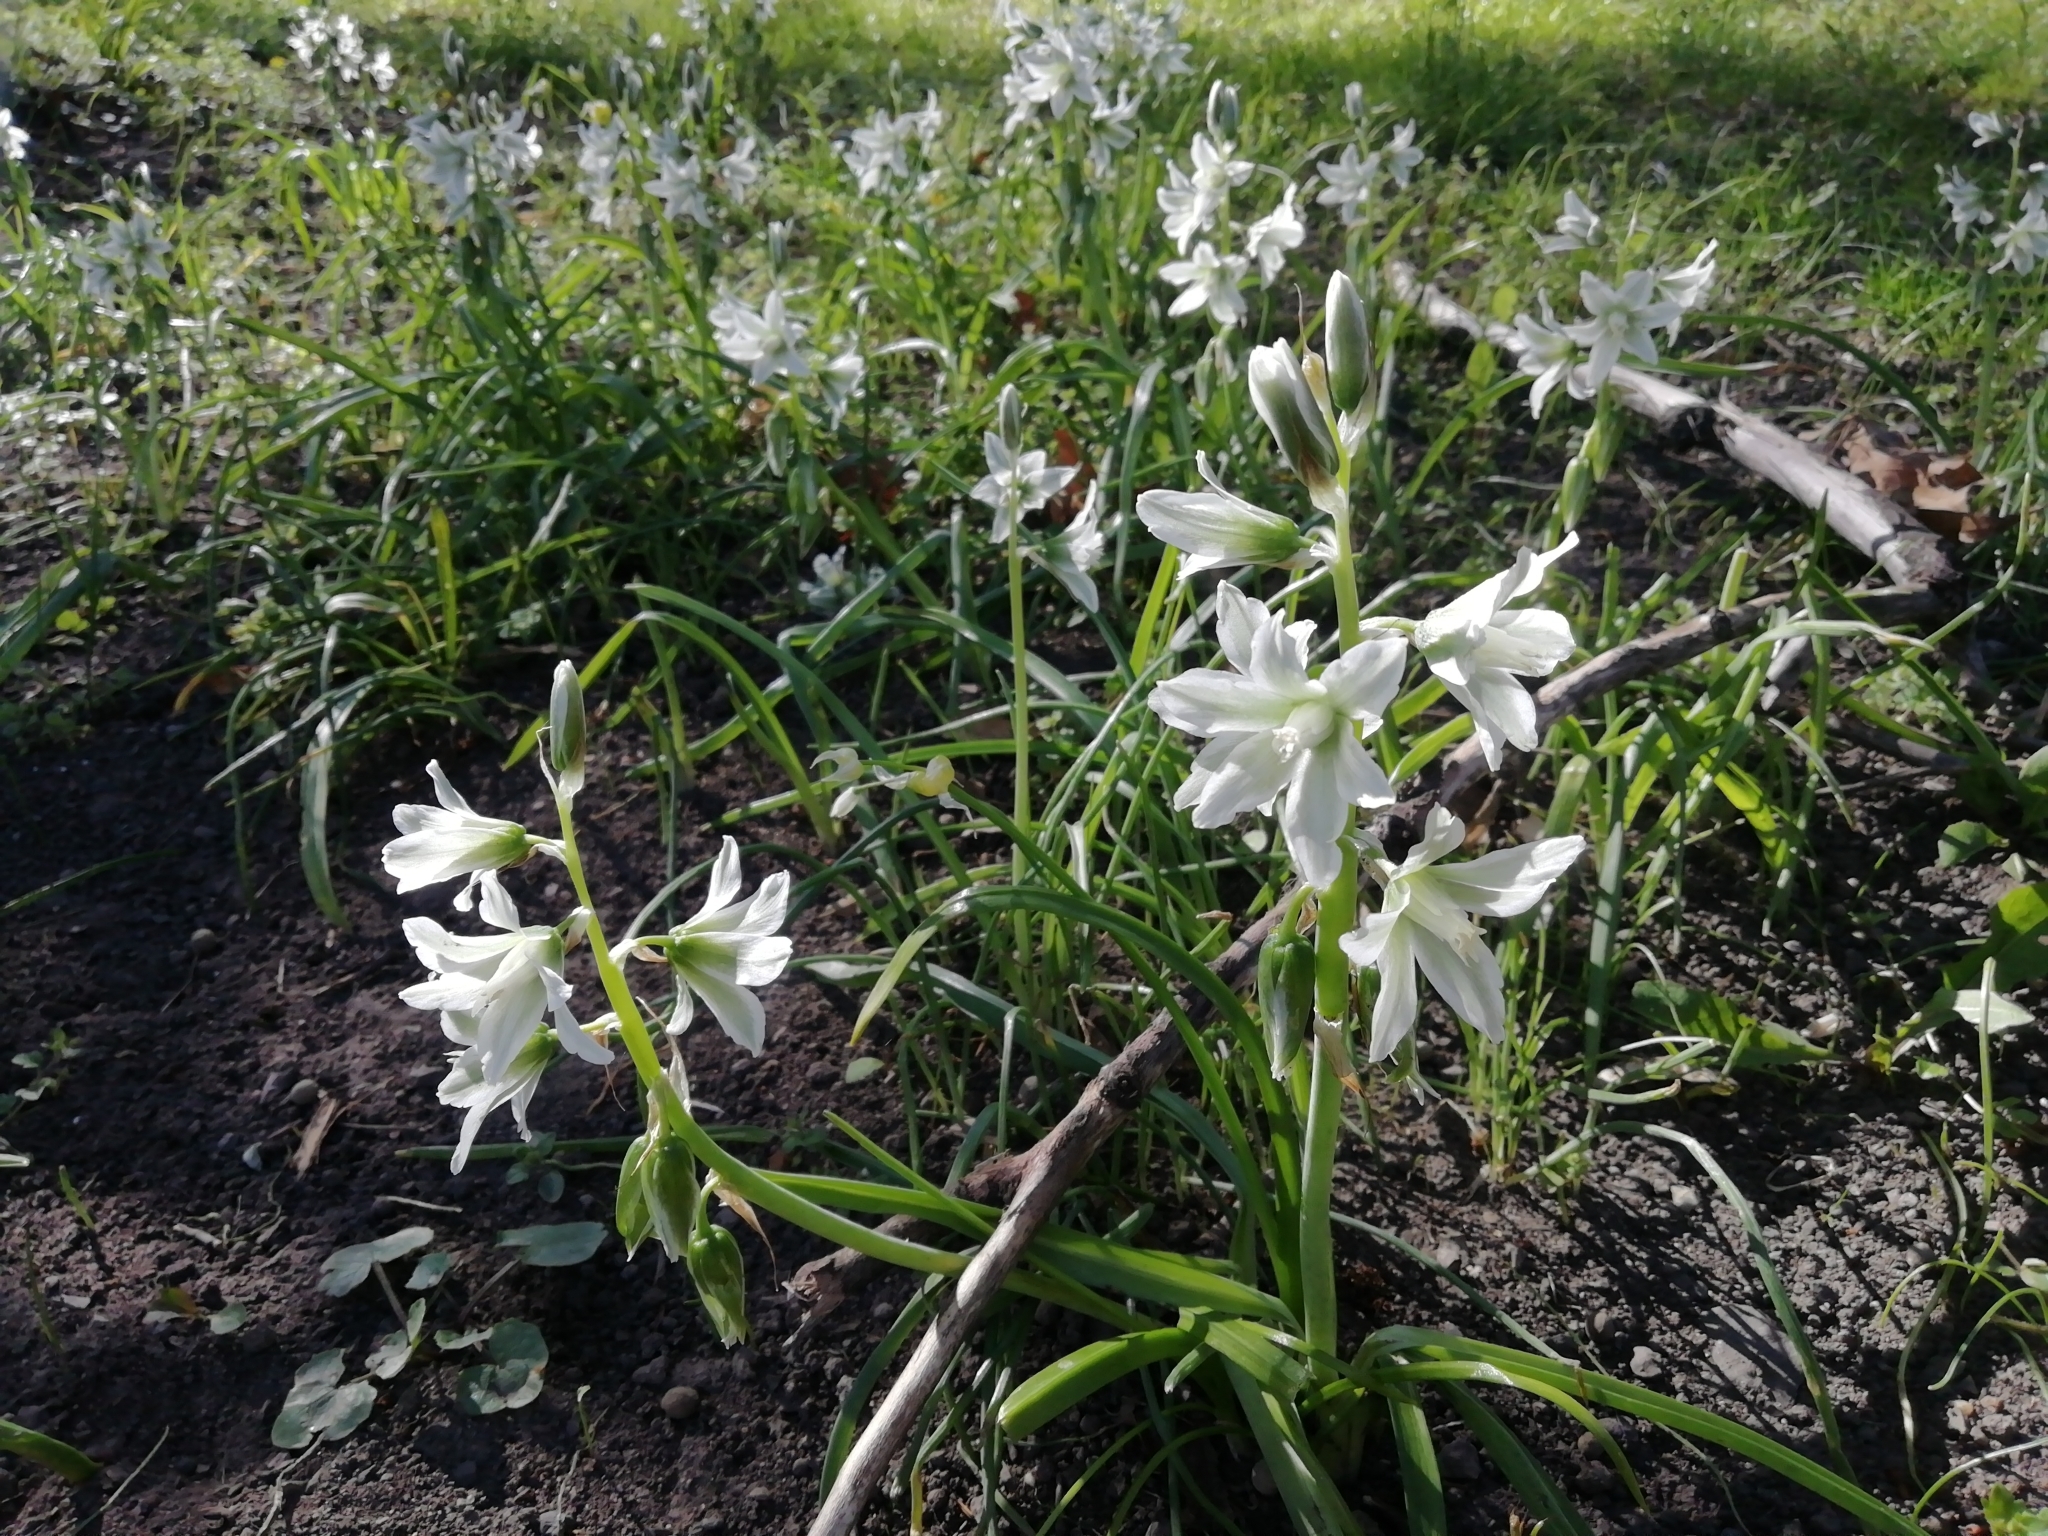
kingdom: Plantae
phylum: Tracheophyta
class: Liliopsida
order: Asparagales
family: Asparagaceae
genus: Ornithogalum
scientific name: Ornithogalum nutans
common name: Drooping star-of-bethlehem
